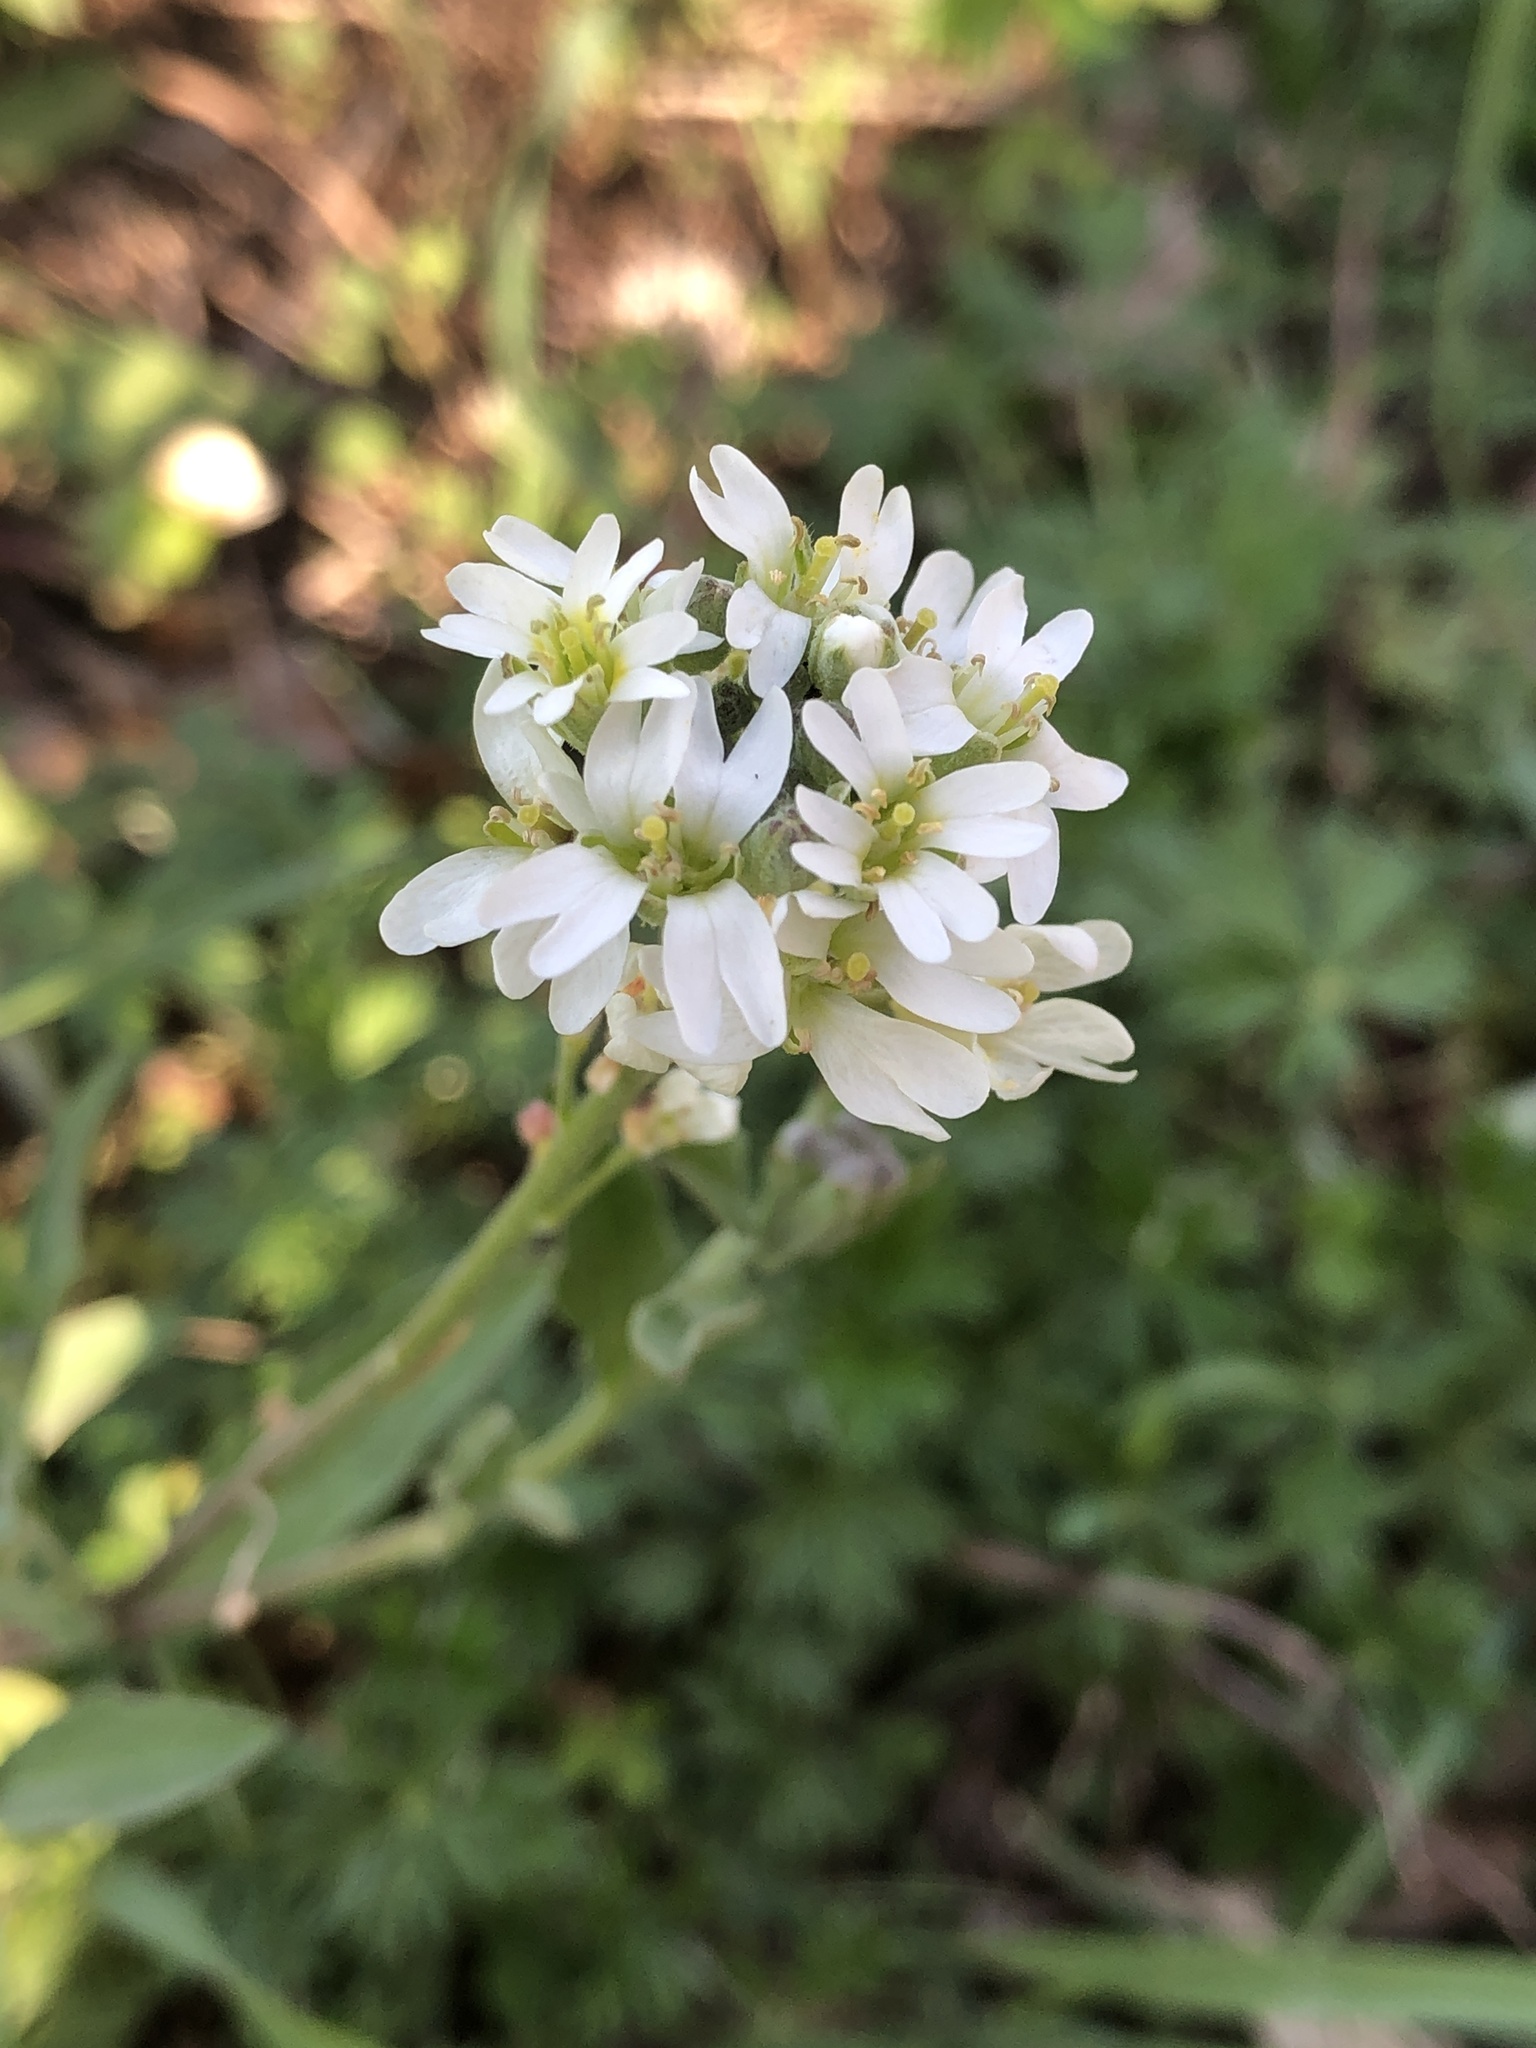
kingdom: Plantae
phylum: Tracheophyta
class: Magnoliopsida
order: Brassicales
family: Brassicaceae
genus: Berteroa
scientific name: Berteroa incana
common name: Hoary alison
